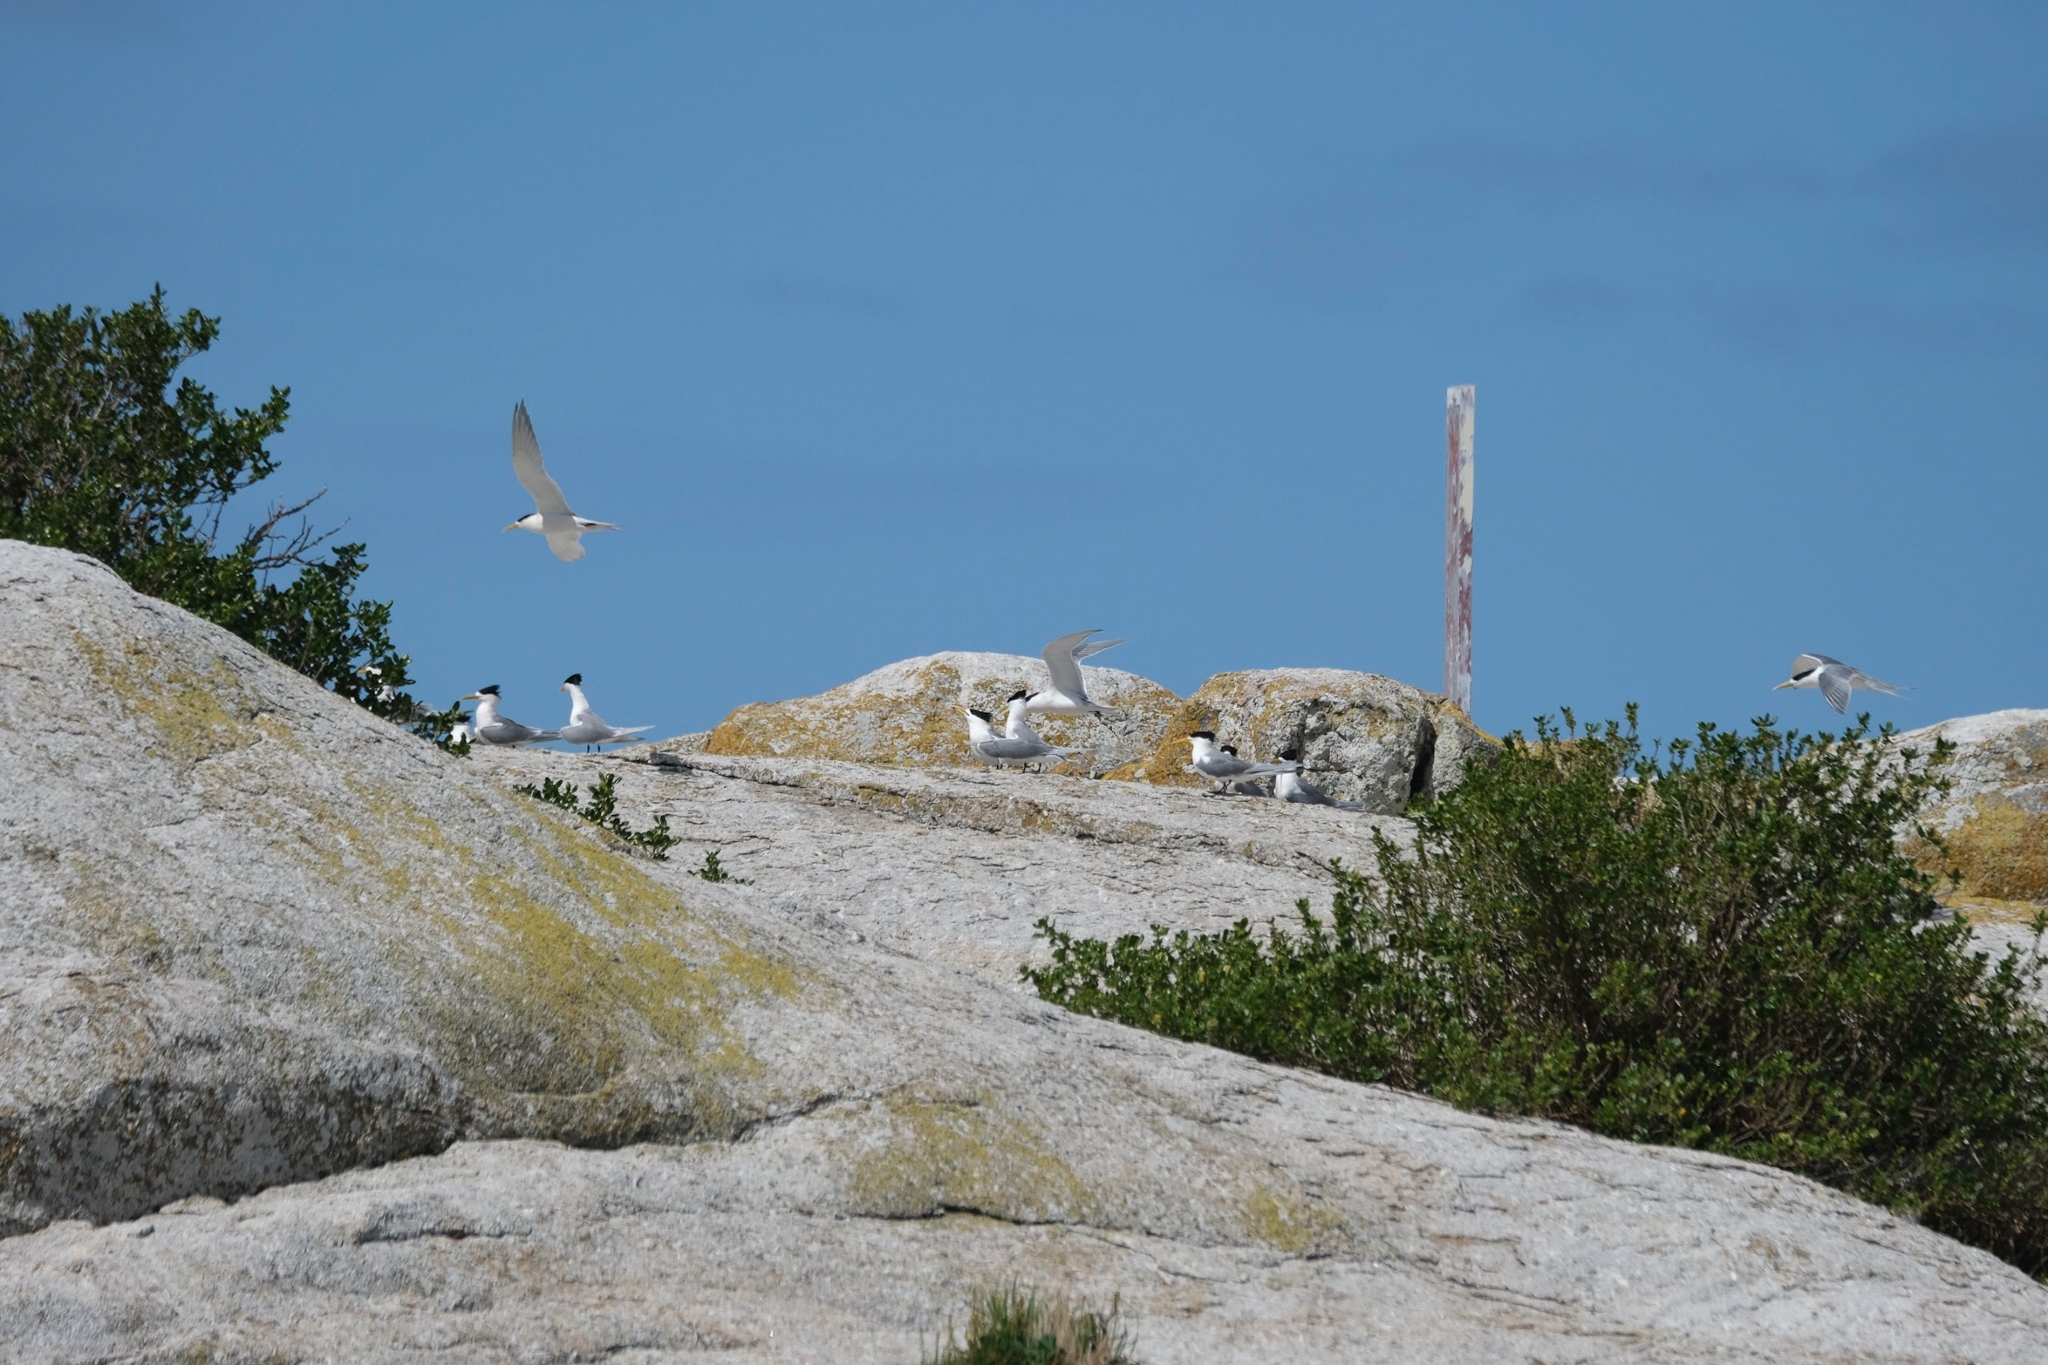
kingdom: Animalia
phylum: Chordata
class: Aves
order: Charadriiformes
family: Laridae
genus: Thalasseus
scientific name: Thalasseus bergii
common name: Greater crested tern
